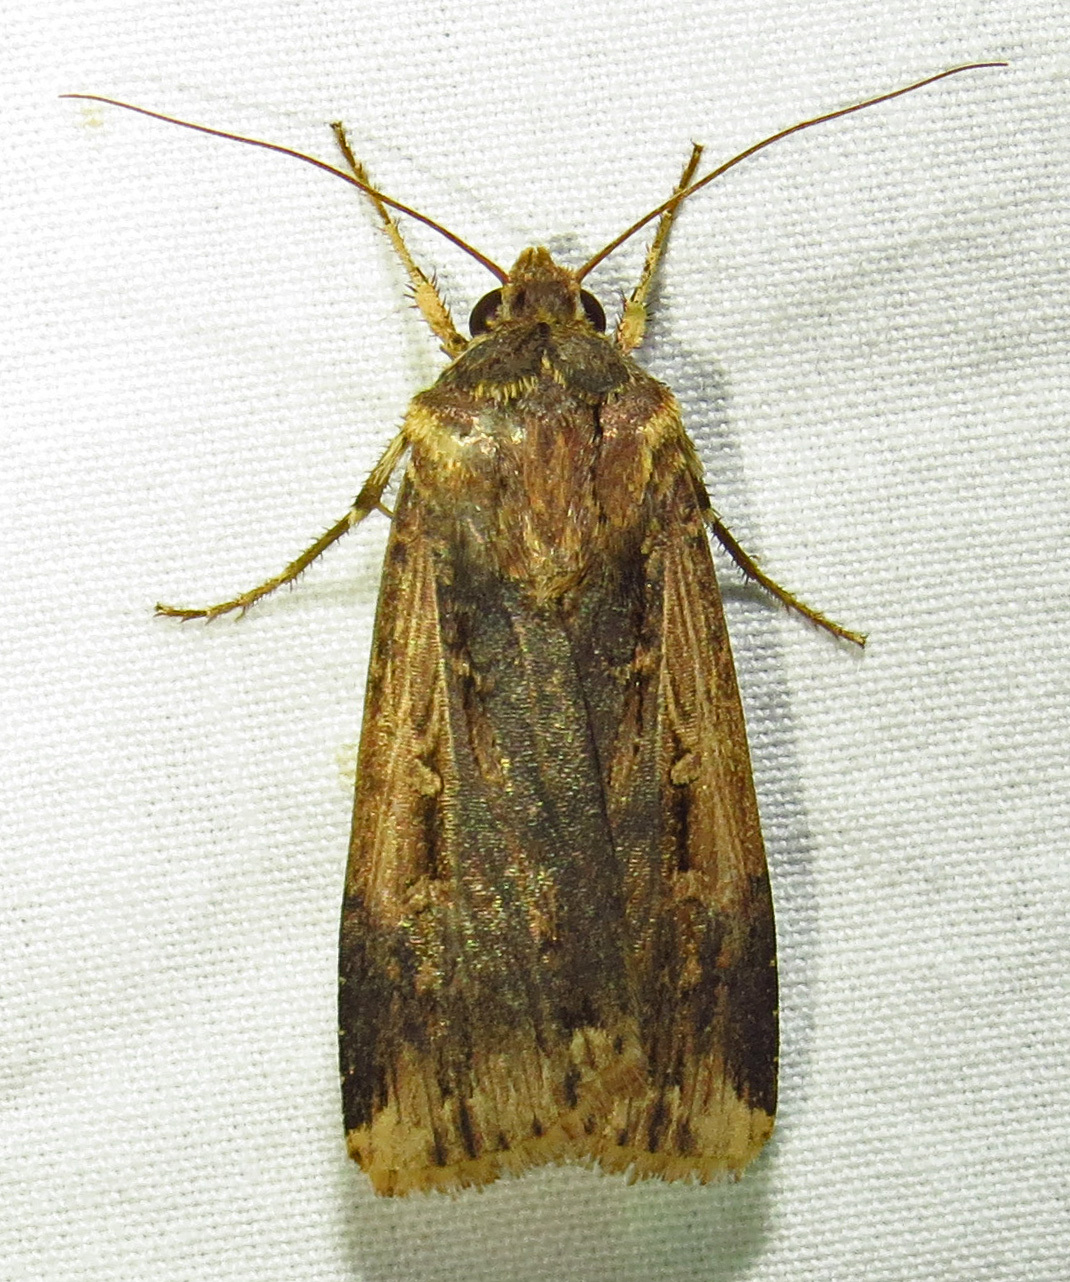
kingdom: Animalia
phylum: Arthropoda
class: Insecta
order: Lepidoptera
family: Noctuidae
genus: Feltia
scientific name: Feltia subterranea
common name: Granulate cutworm
